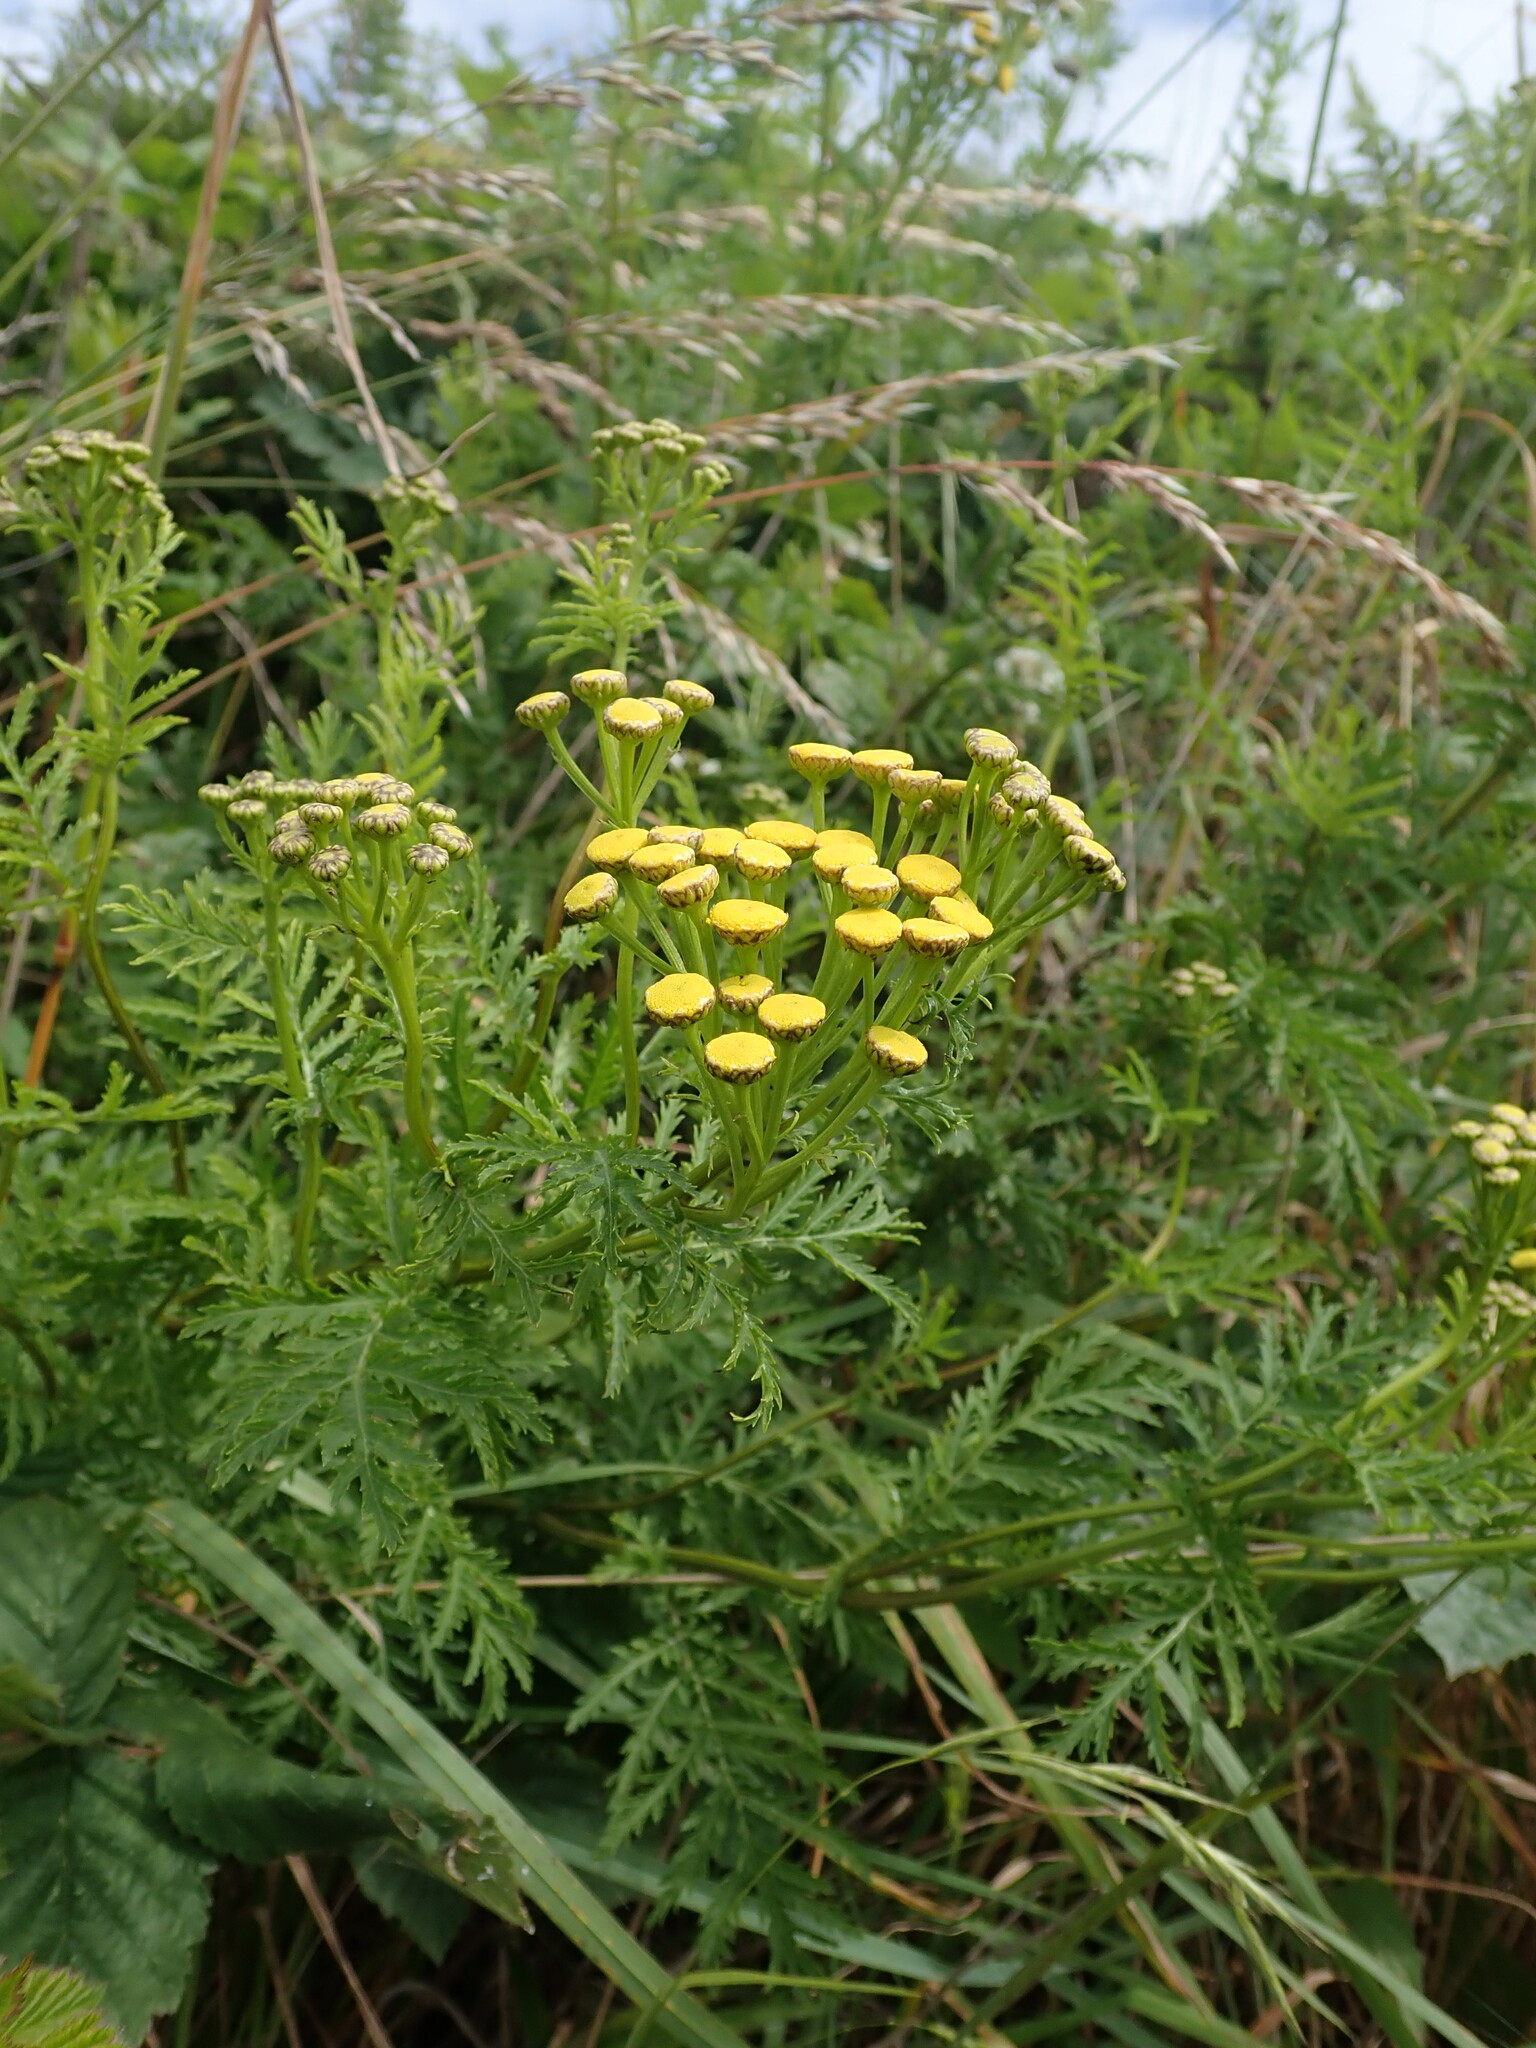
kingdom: Plantae
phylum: Tracheophyta
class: Magnoliopsida
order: Asterales
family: Asteraceae
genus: Tanacetum
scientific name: Tanacetum vulgare
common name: Common tansy
